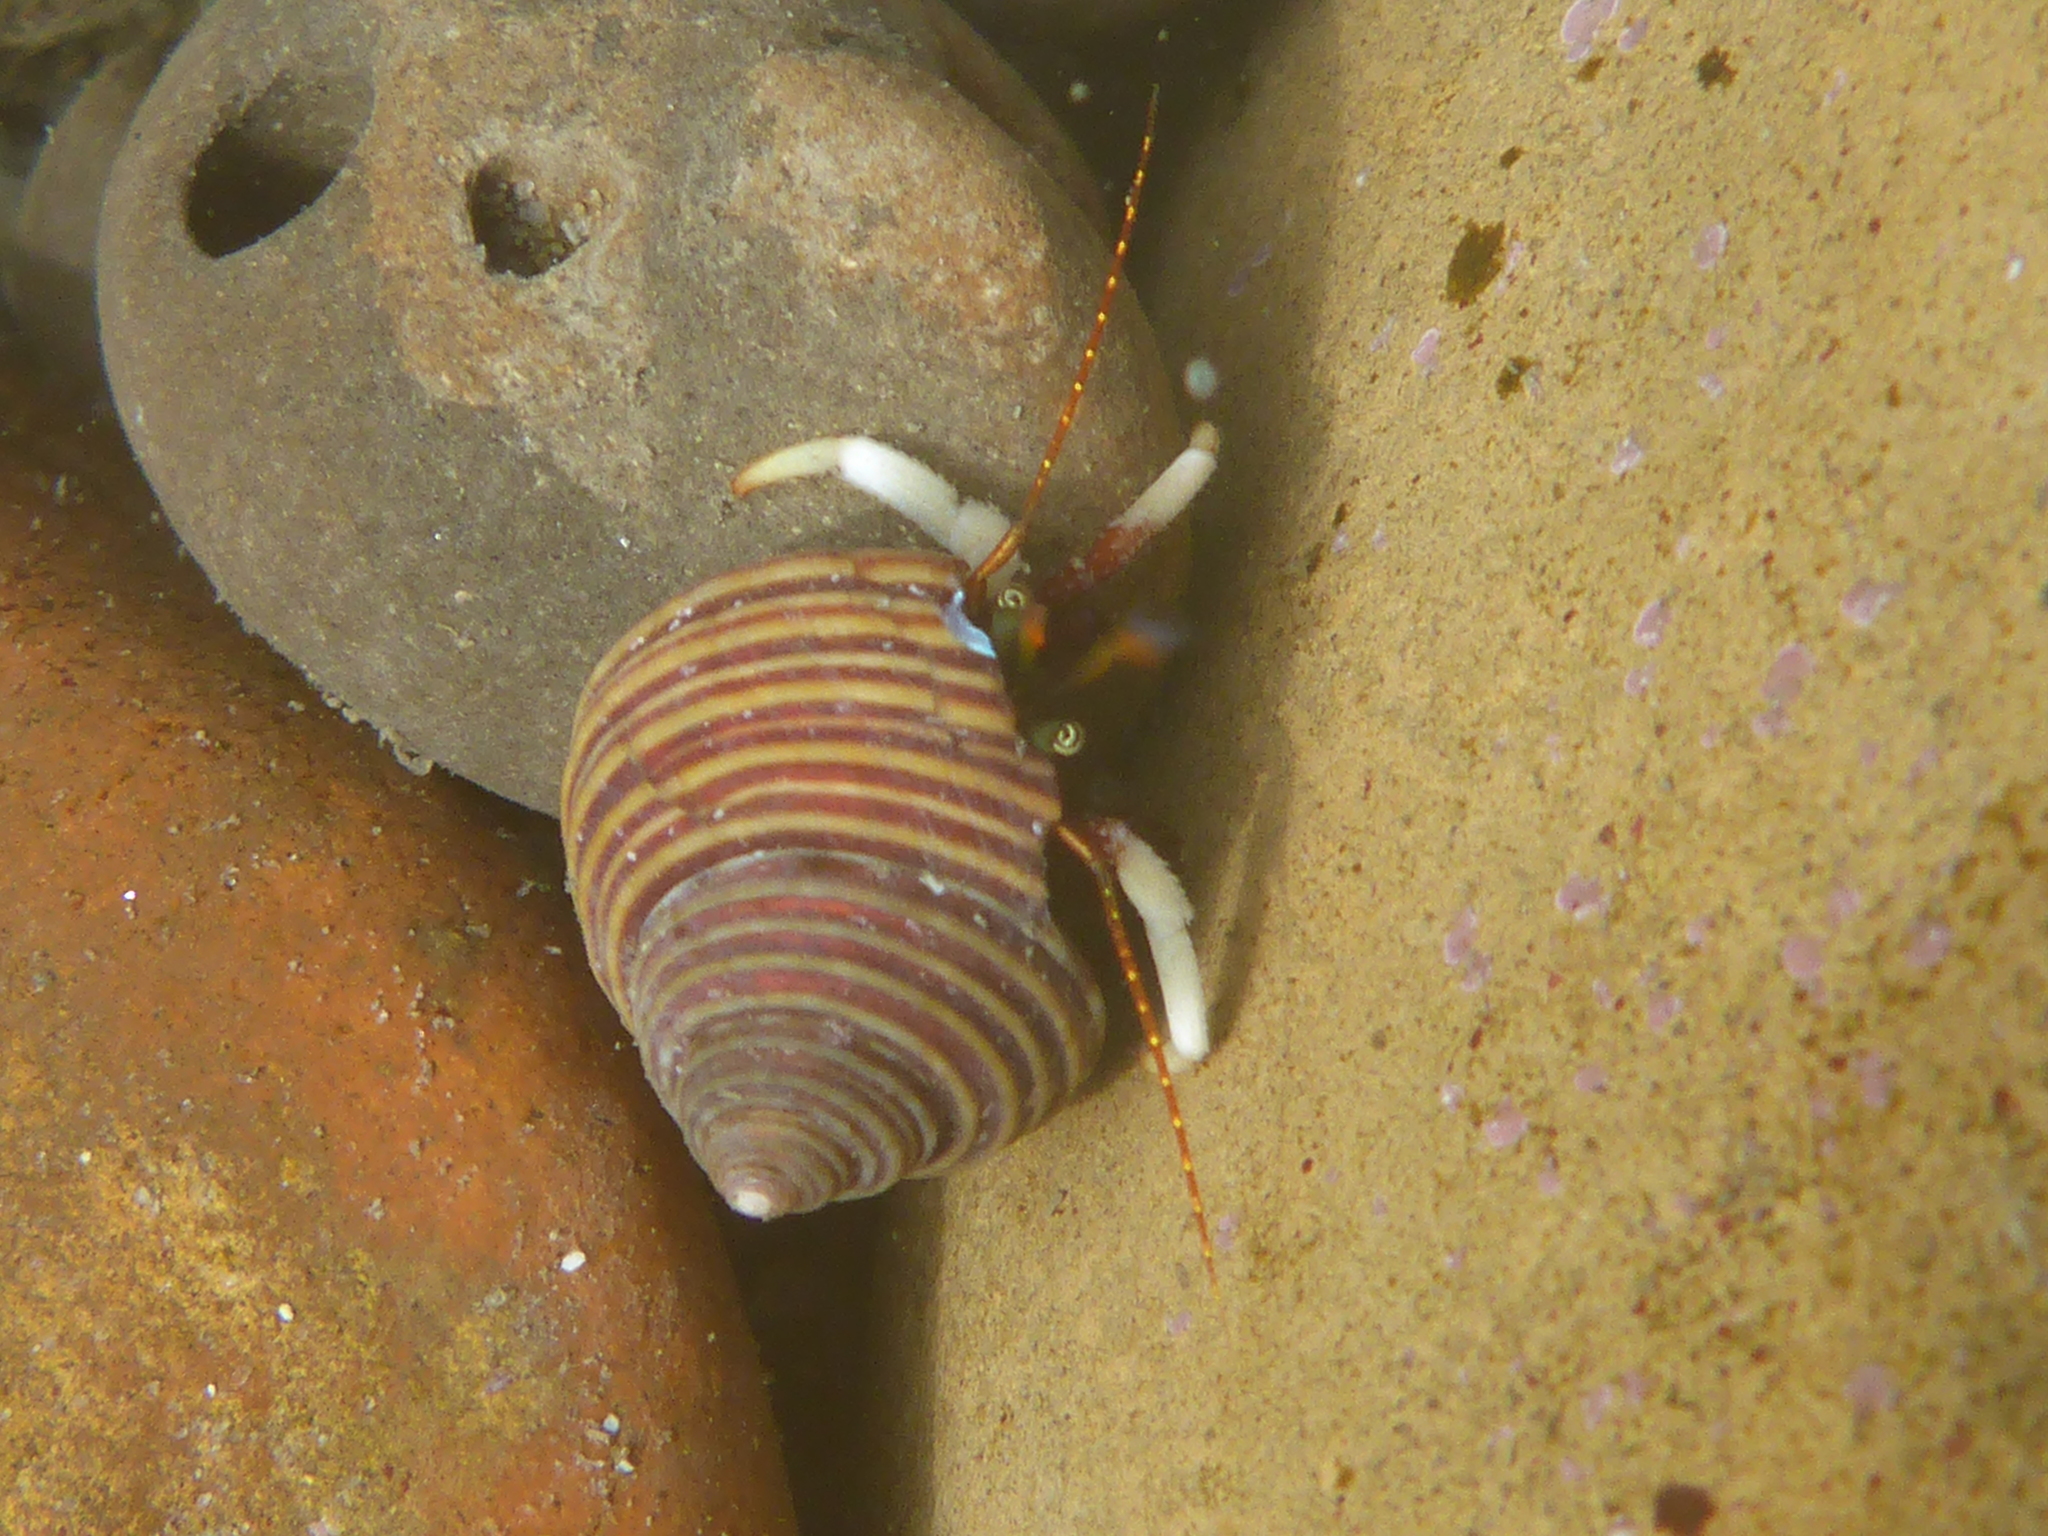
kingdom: Animalia
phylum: Arthropoda
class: Malacostraca
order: Decapoda
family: Paguridae
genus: Pagurus
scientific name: Pagurus hemphilli
